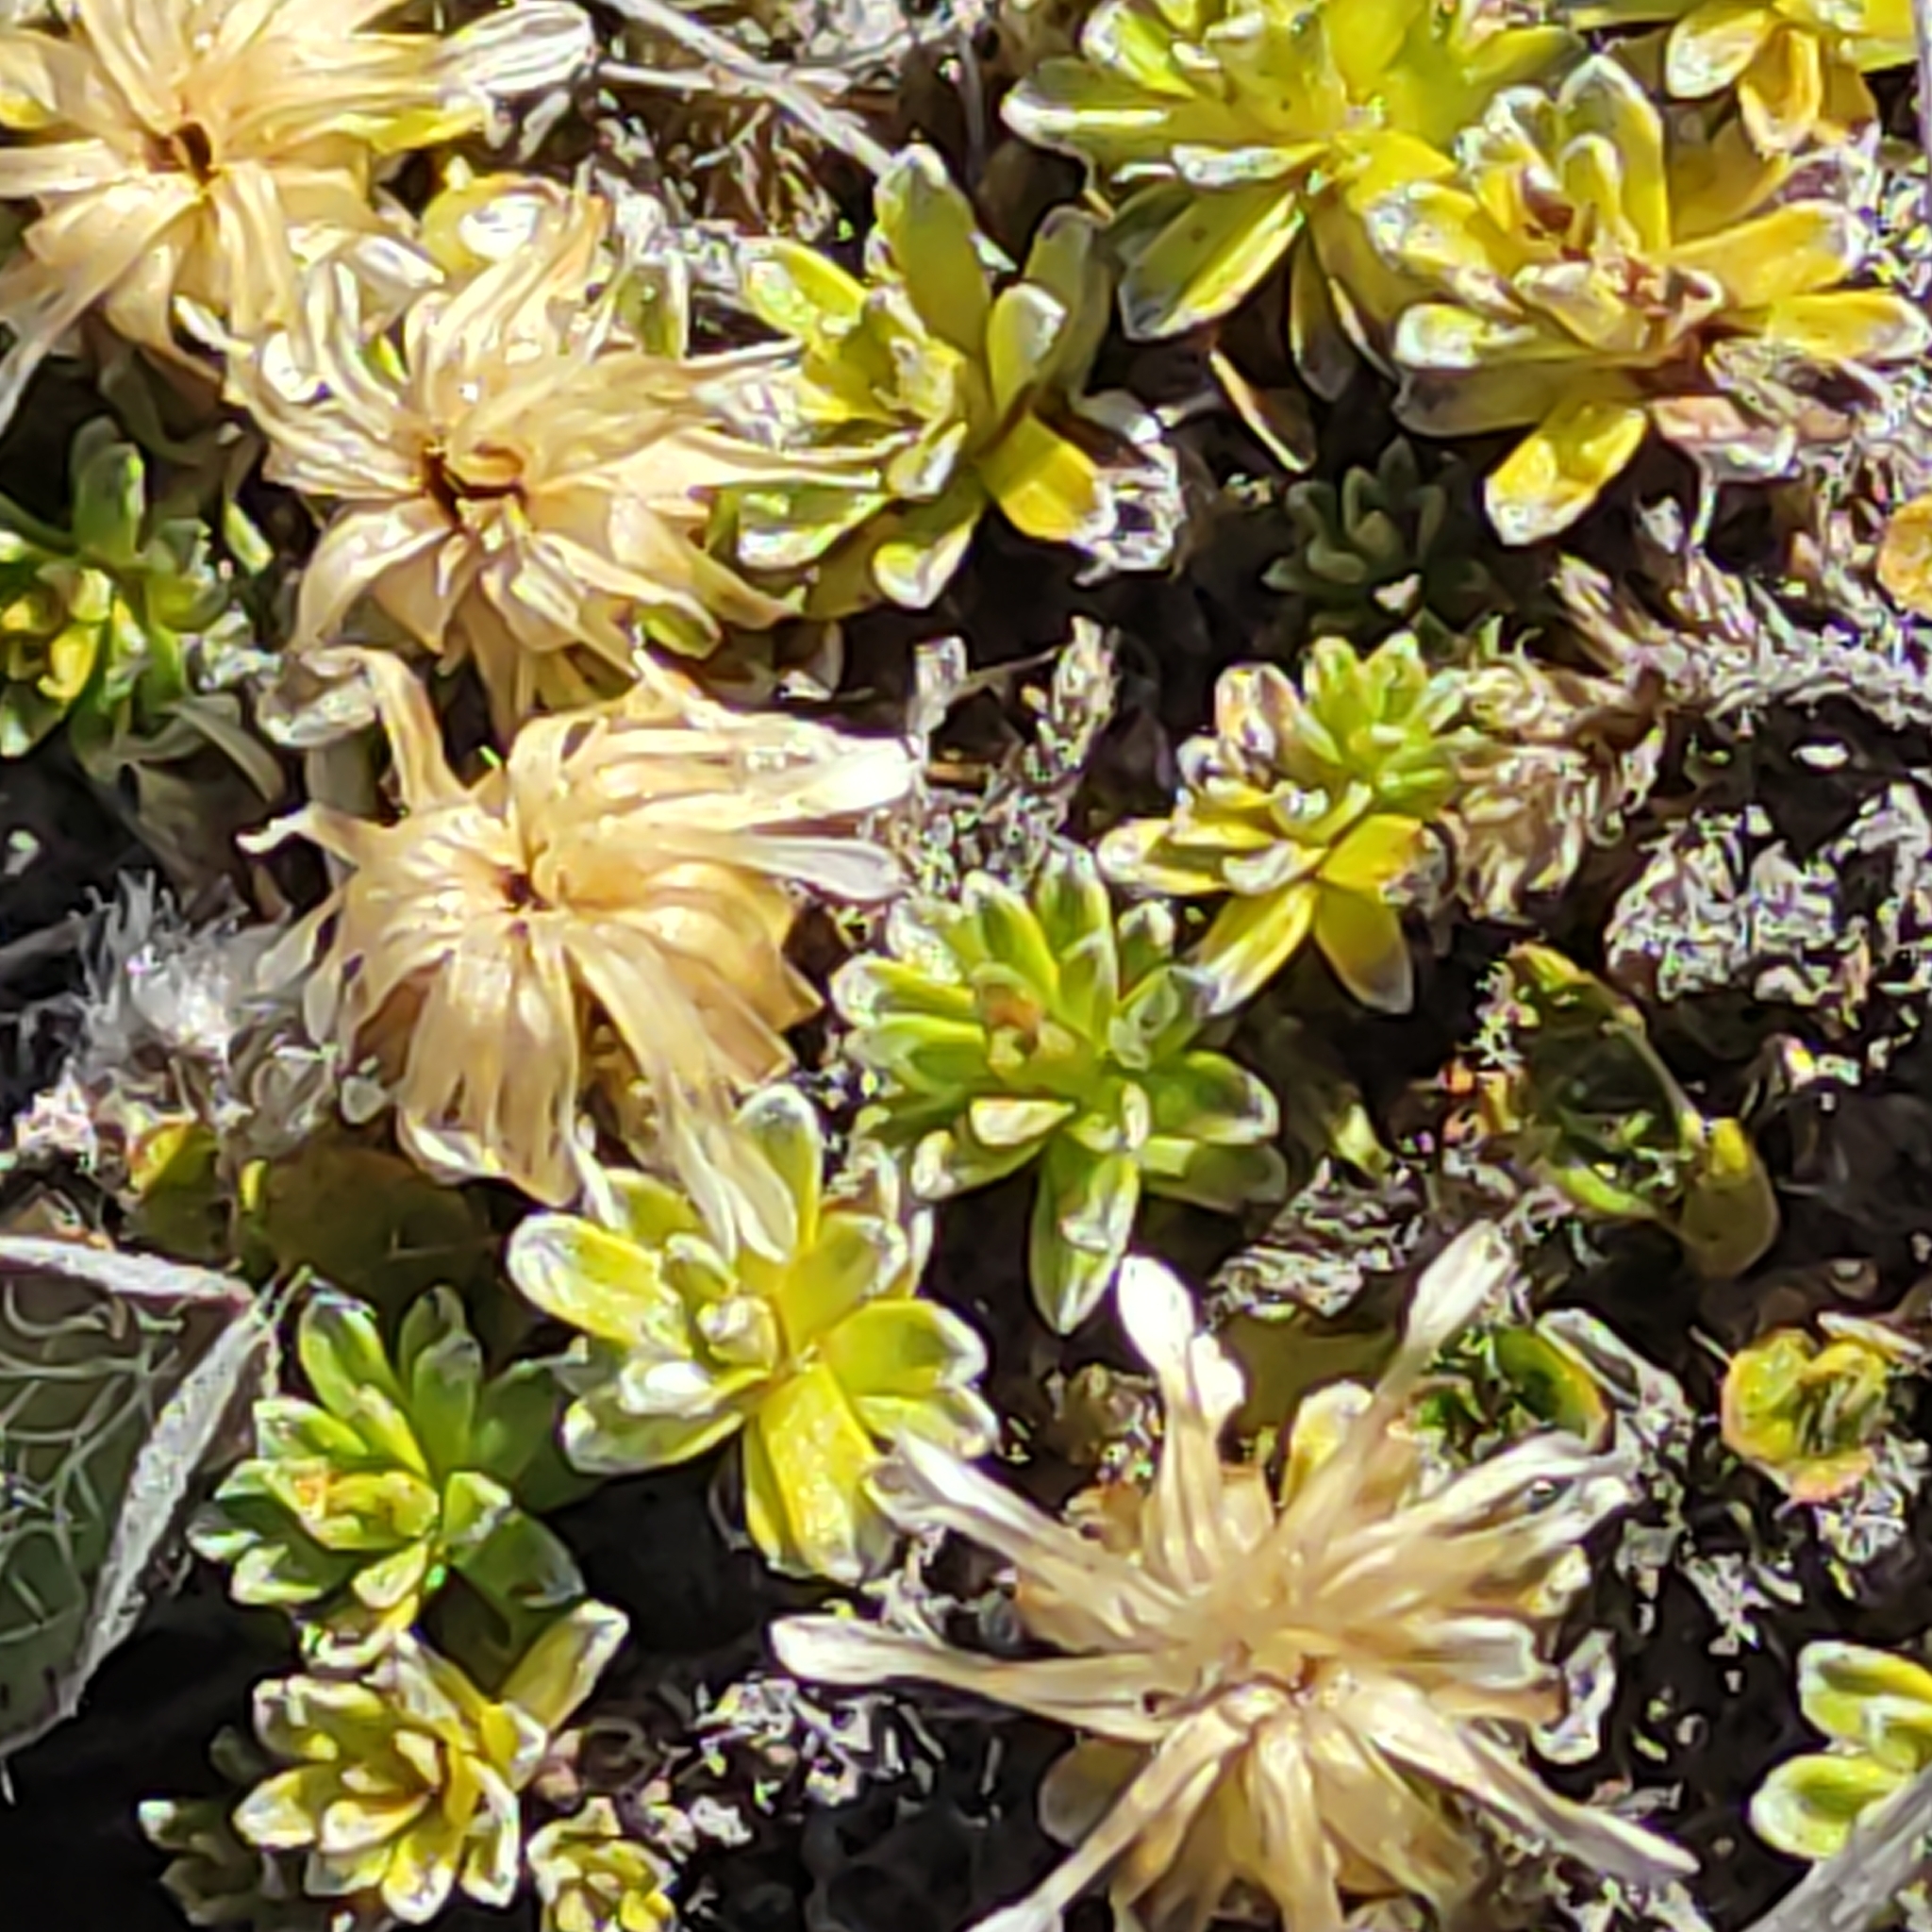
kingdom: Plantae
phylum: Tracheophyta
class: Magnoliopsida
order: Asterales
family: Asteraceae
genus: Raoulia
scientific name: Raoulia glabra
